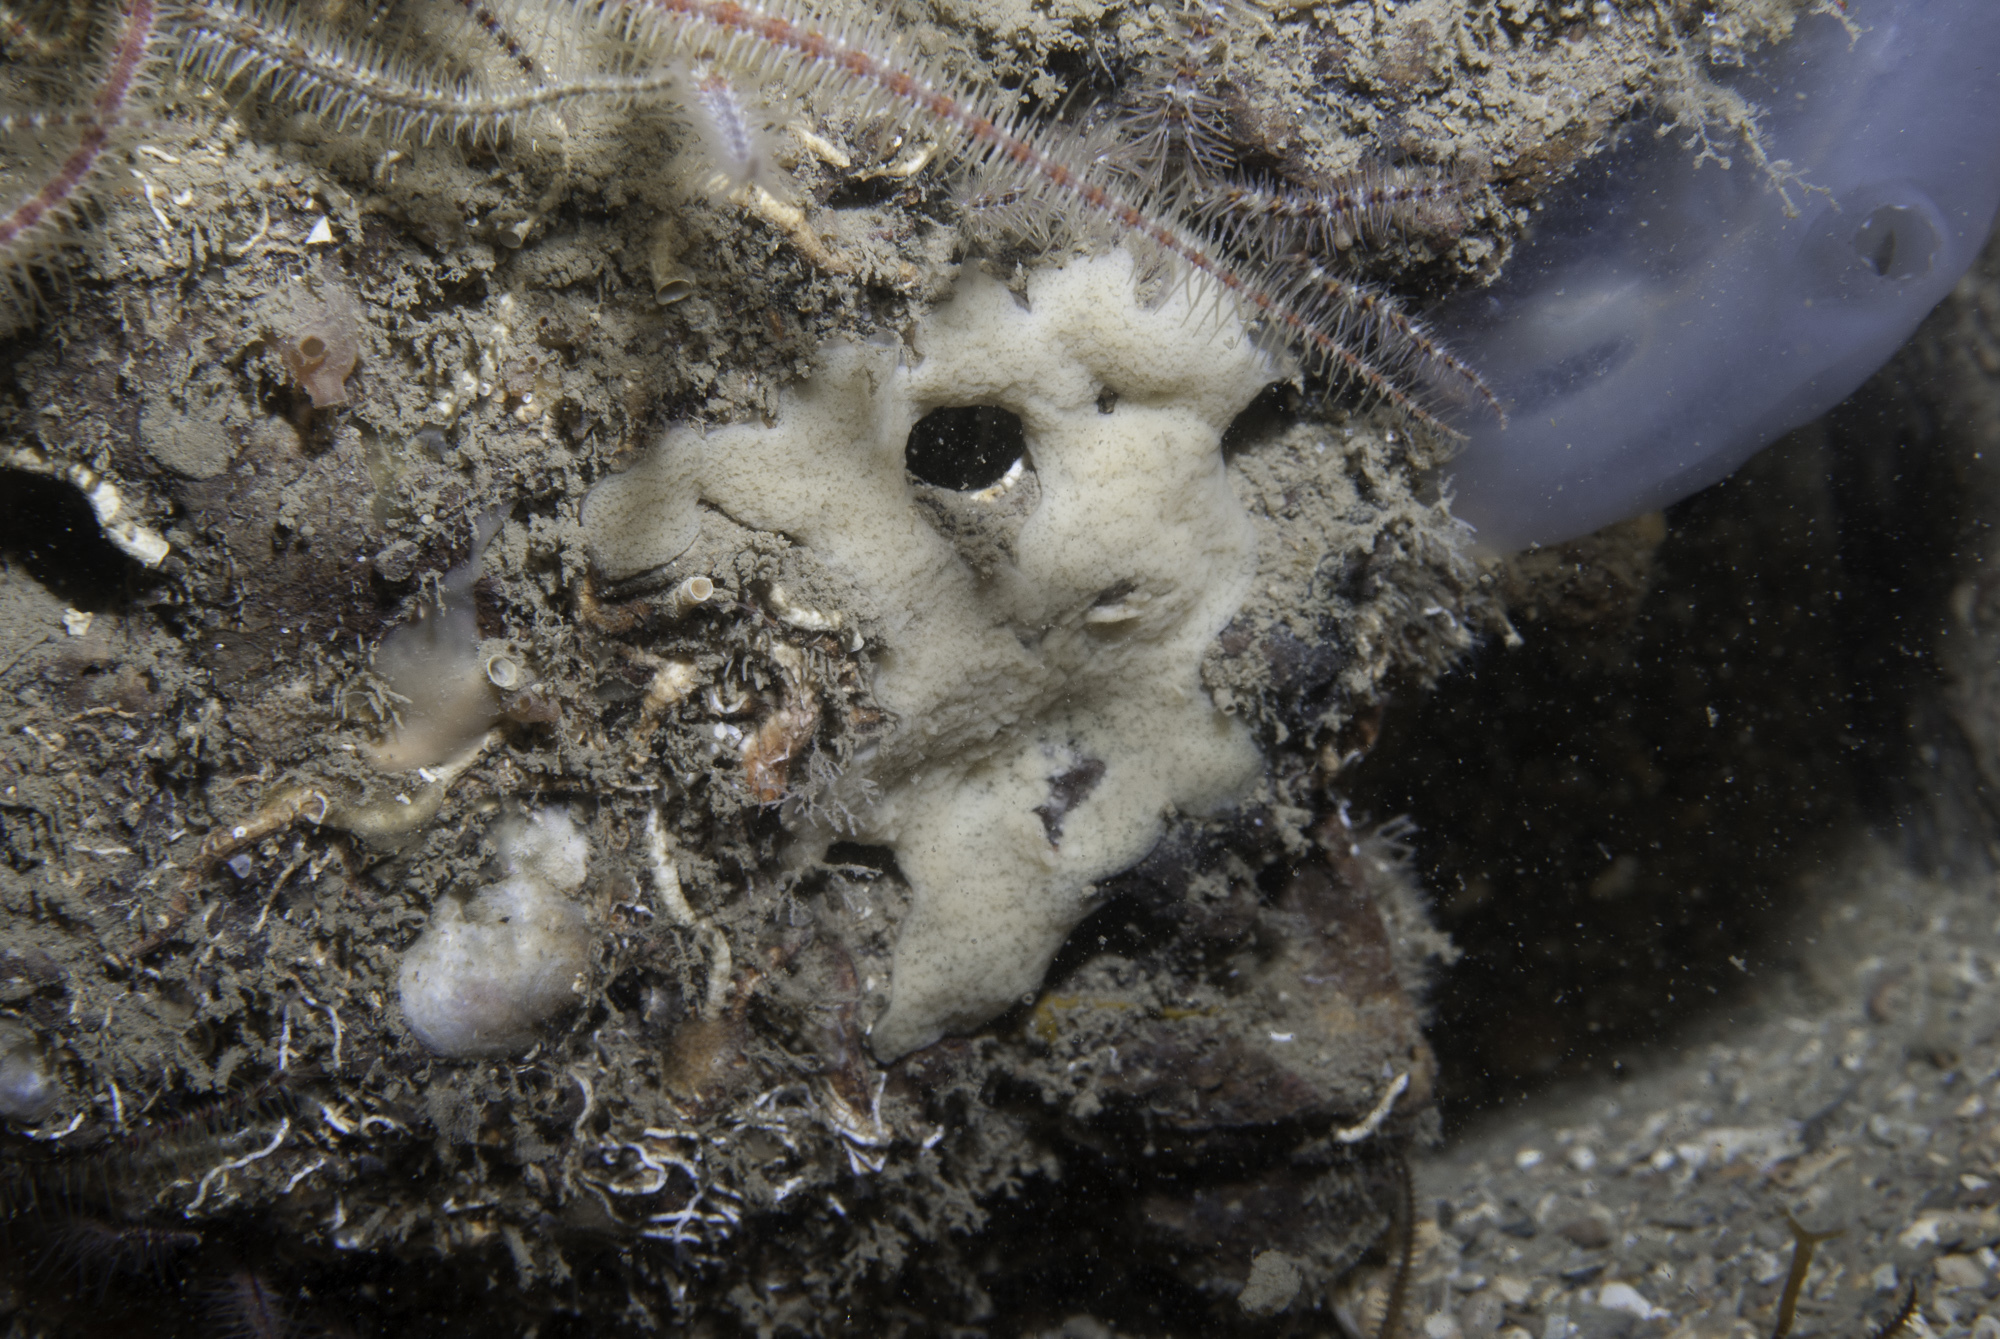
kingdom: Animalia
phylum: Porifera
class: Homoscleromorpha
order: Homosclerophorida
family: Plakinidae
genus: Plakina
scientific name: Plakina monolopha
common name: Simple-rayed membrane sponge
